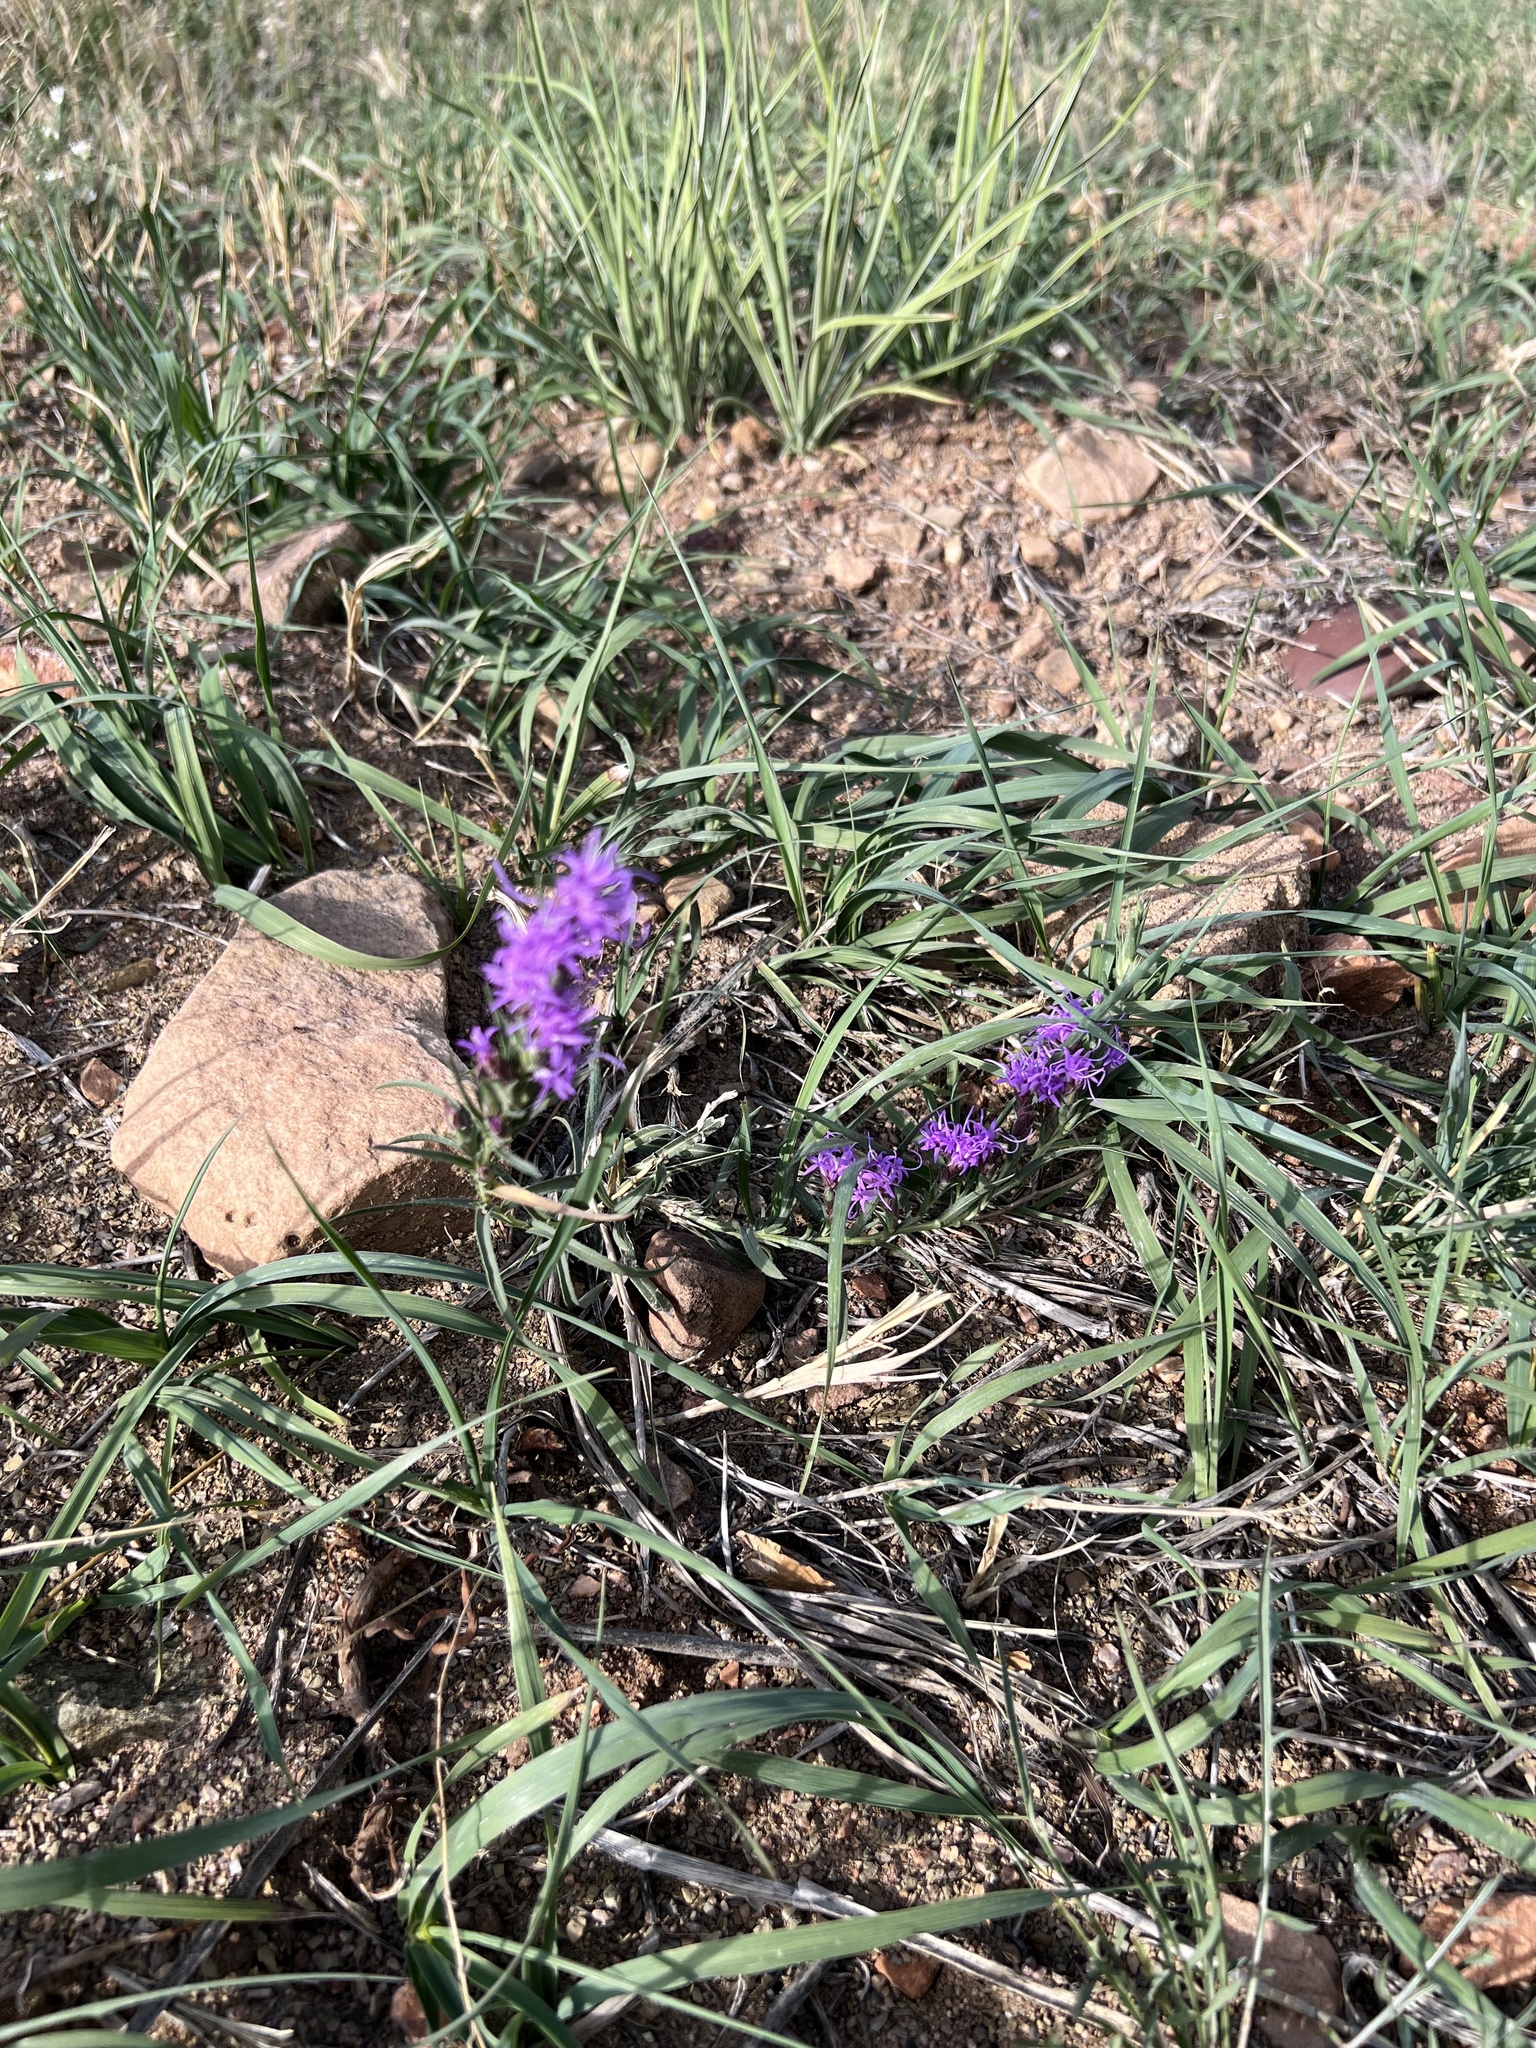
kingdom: Plantae
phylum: Tracheophyta
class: Magnoliopsida
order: Asterales
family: Asteraceae
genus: Liatris
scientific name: Liatris punctata
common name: Dotted gayfeather
